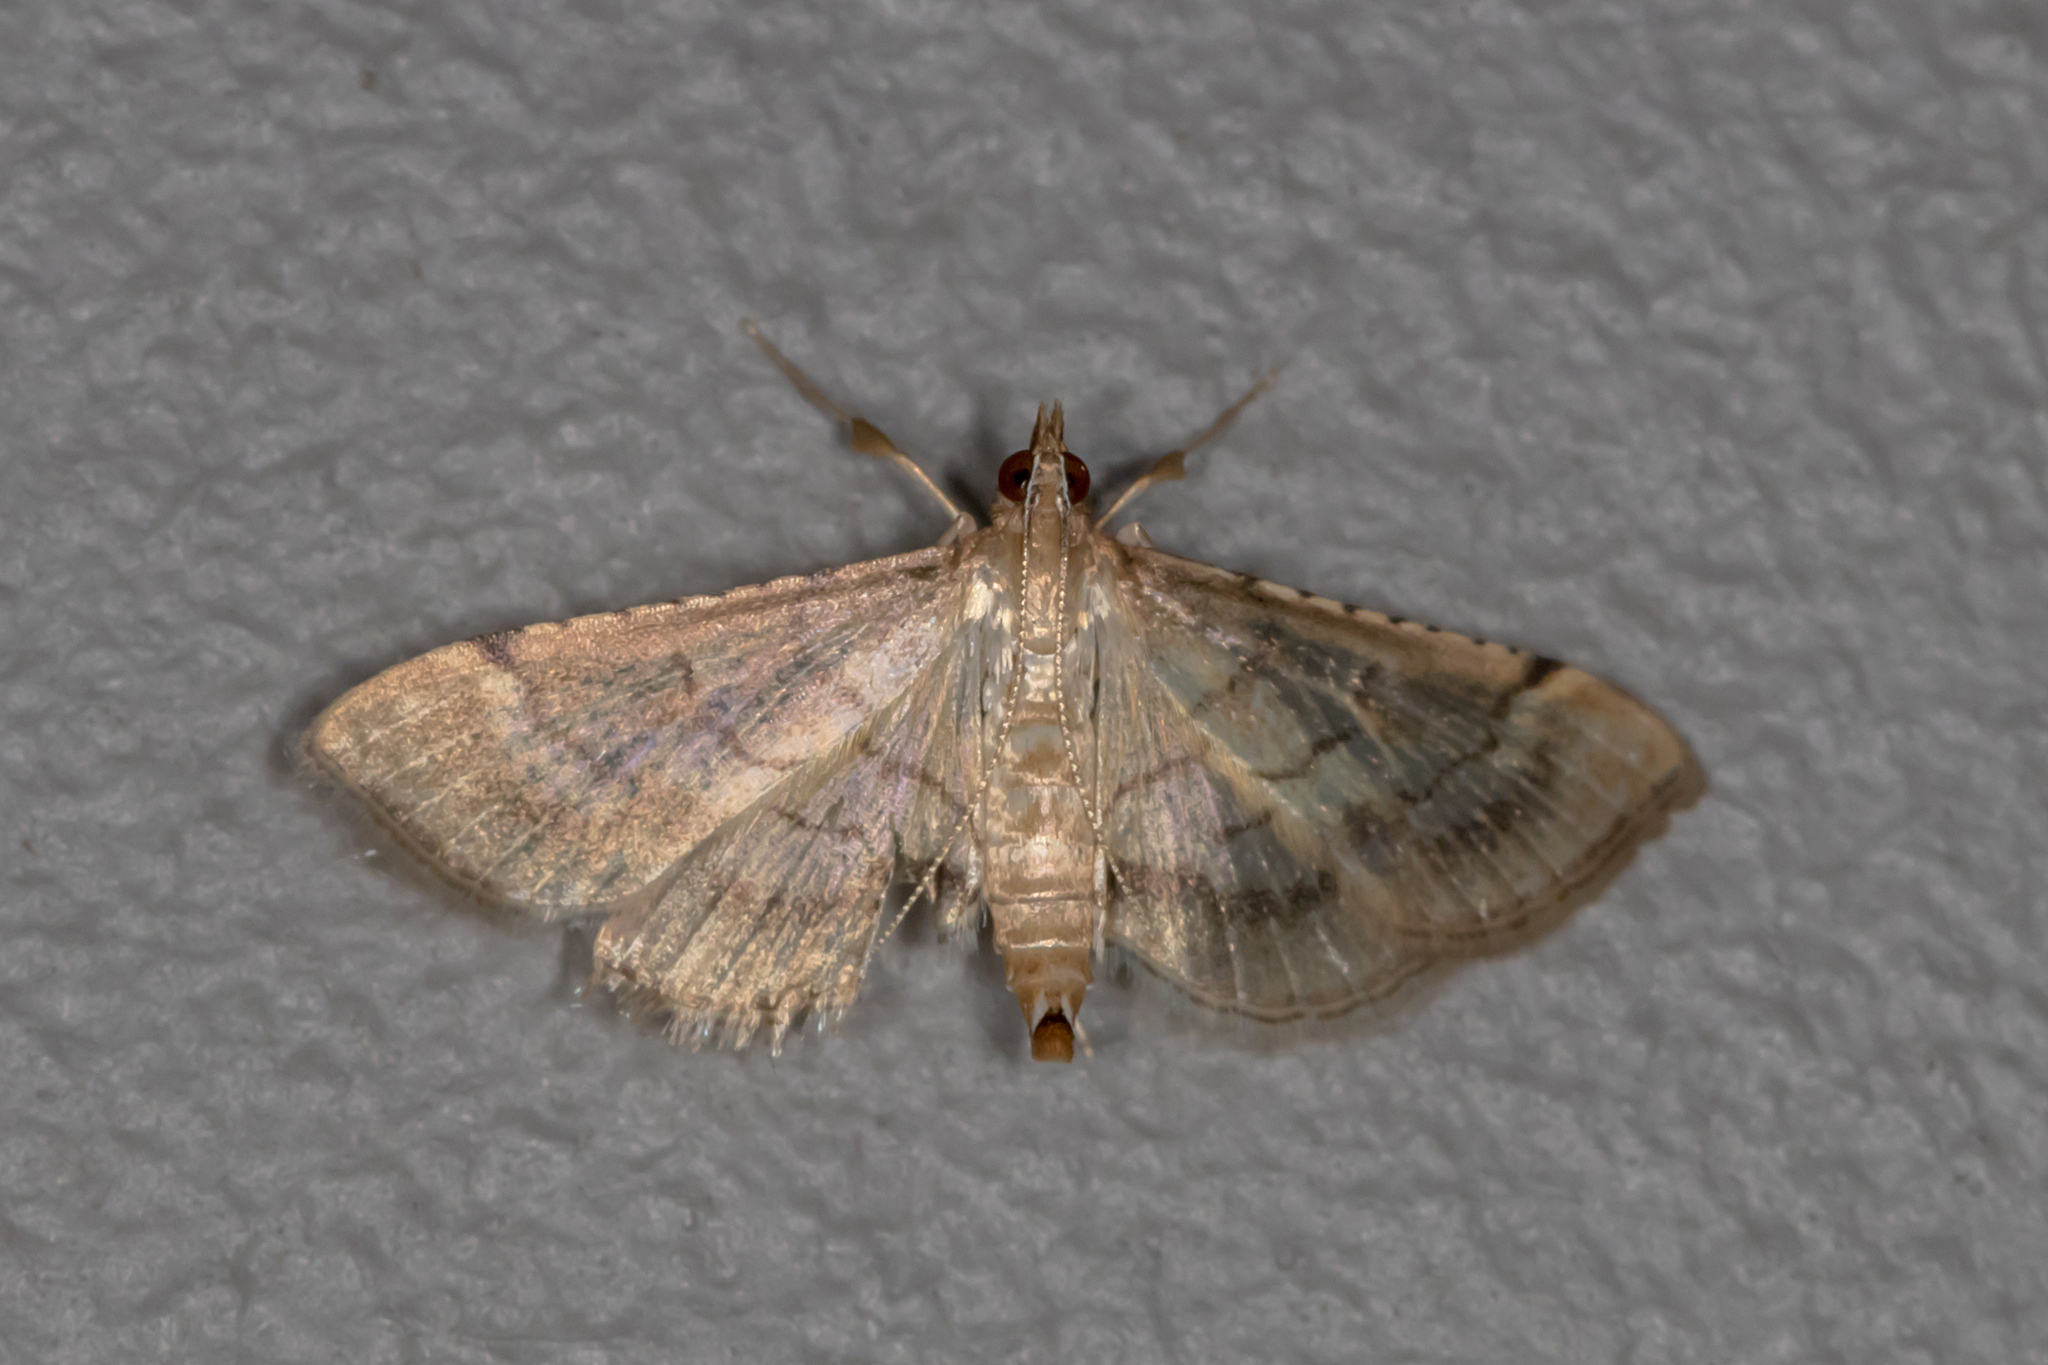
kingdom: Animalia
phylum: Arthropoda
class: Insecta
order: Lepidoptera
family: Crambidae
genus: Cnaphalocrocis
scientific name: Cnaphalocrocis poeyalis
